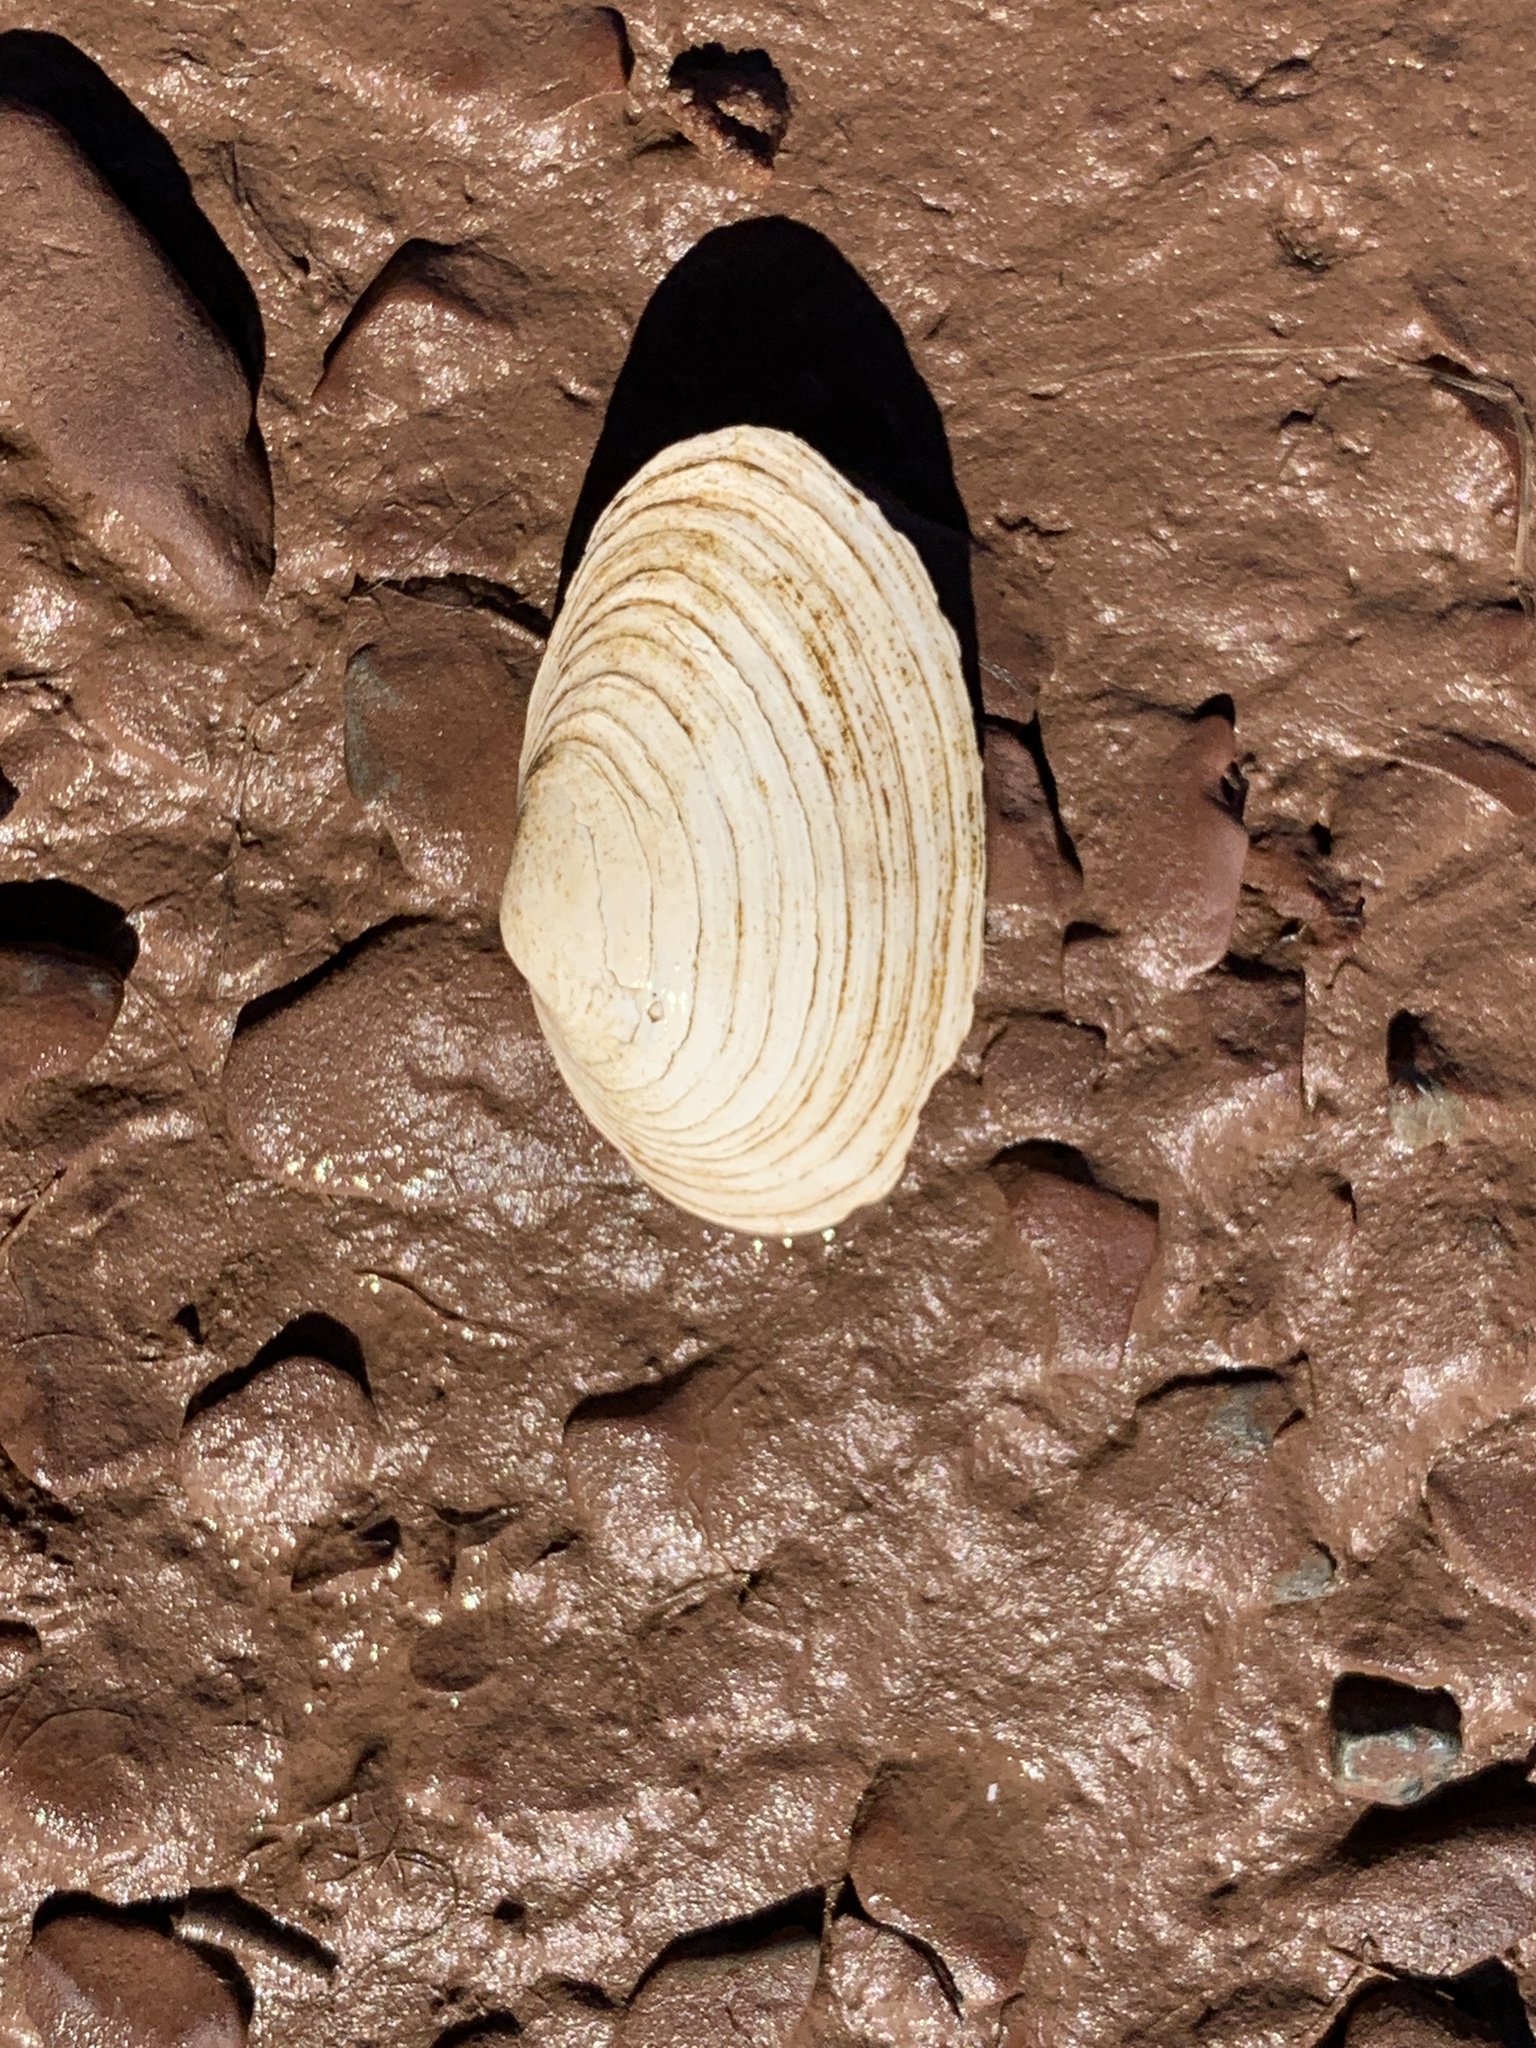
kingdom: Animalia
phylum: Mollusca
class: Bivalvia
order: Myida
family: Myidae
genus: Mya
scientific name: Mya arenaria
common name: Soft-shelled clam
